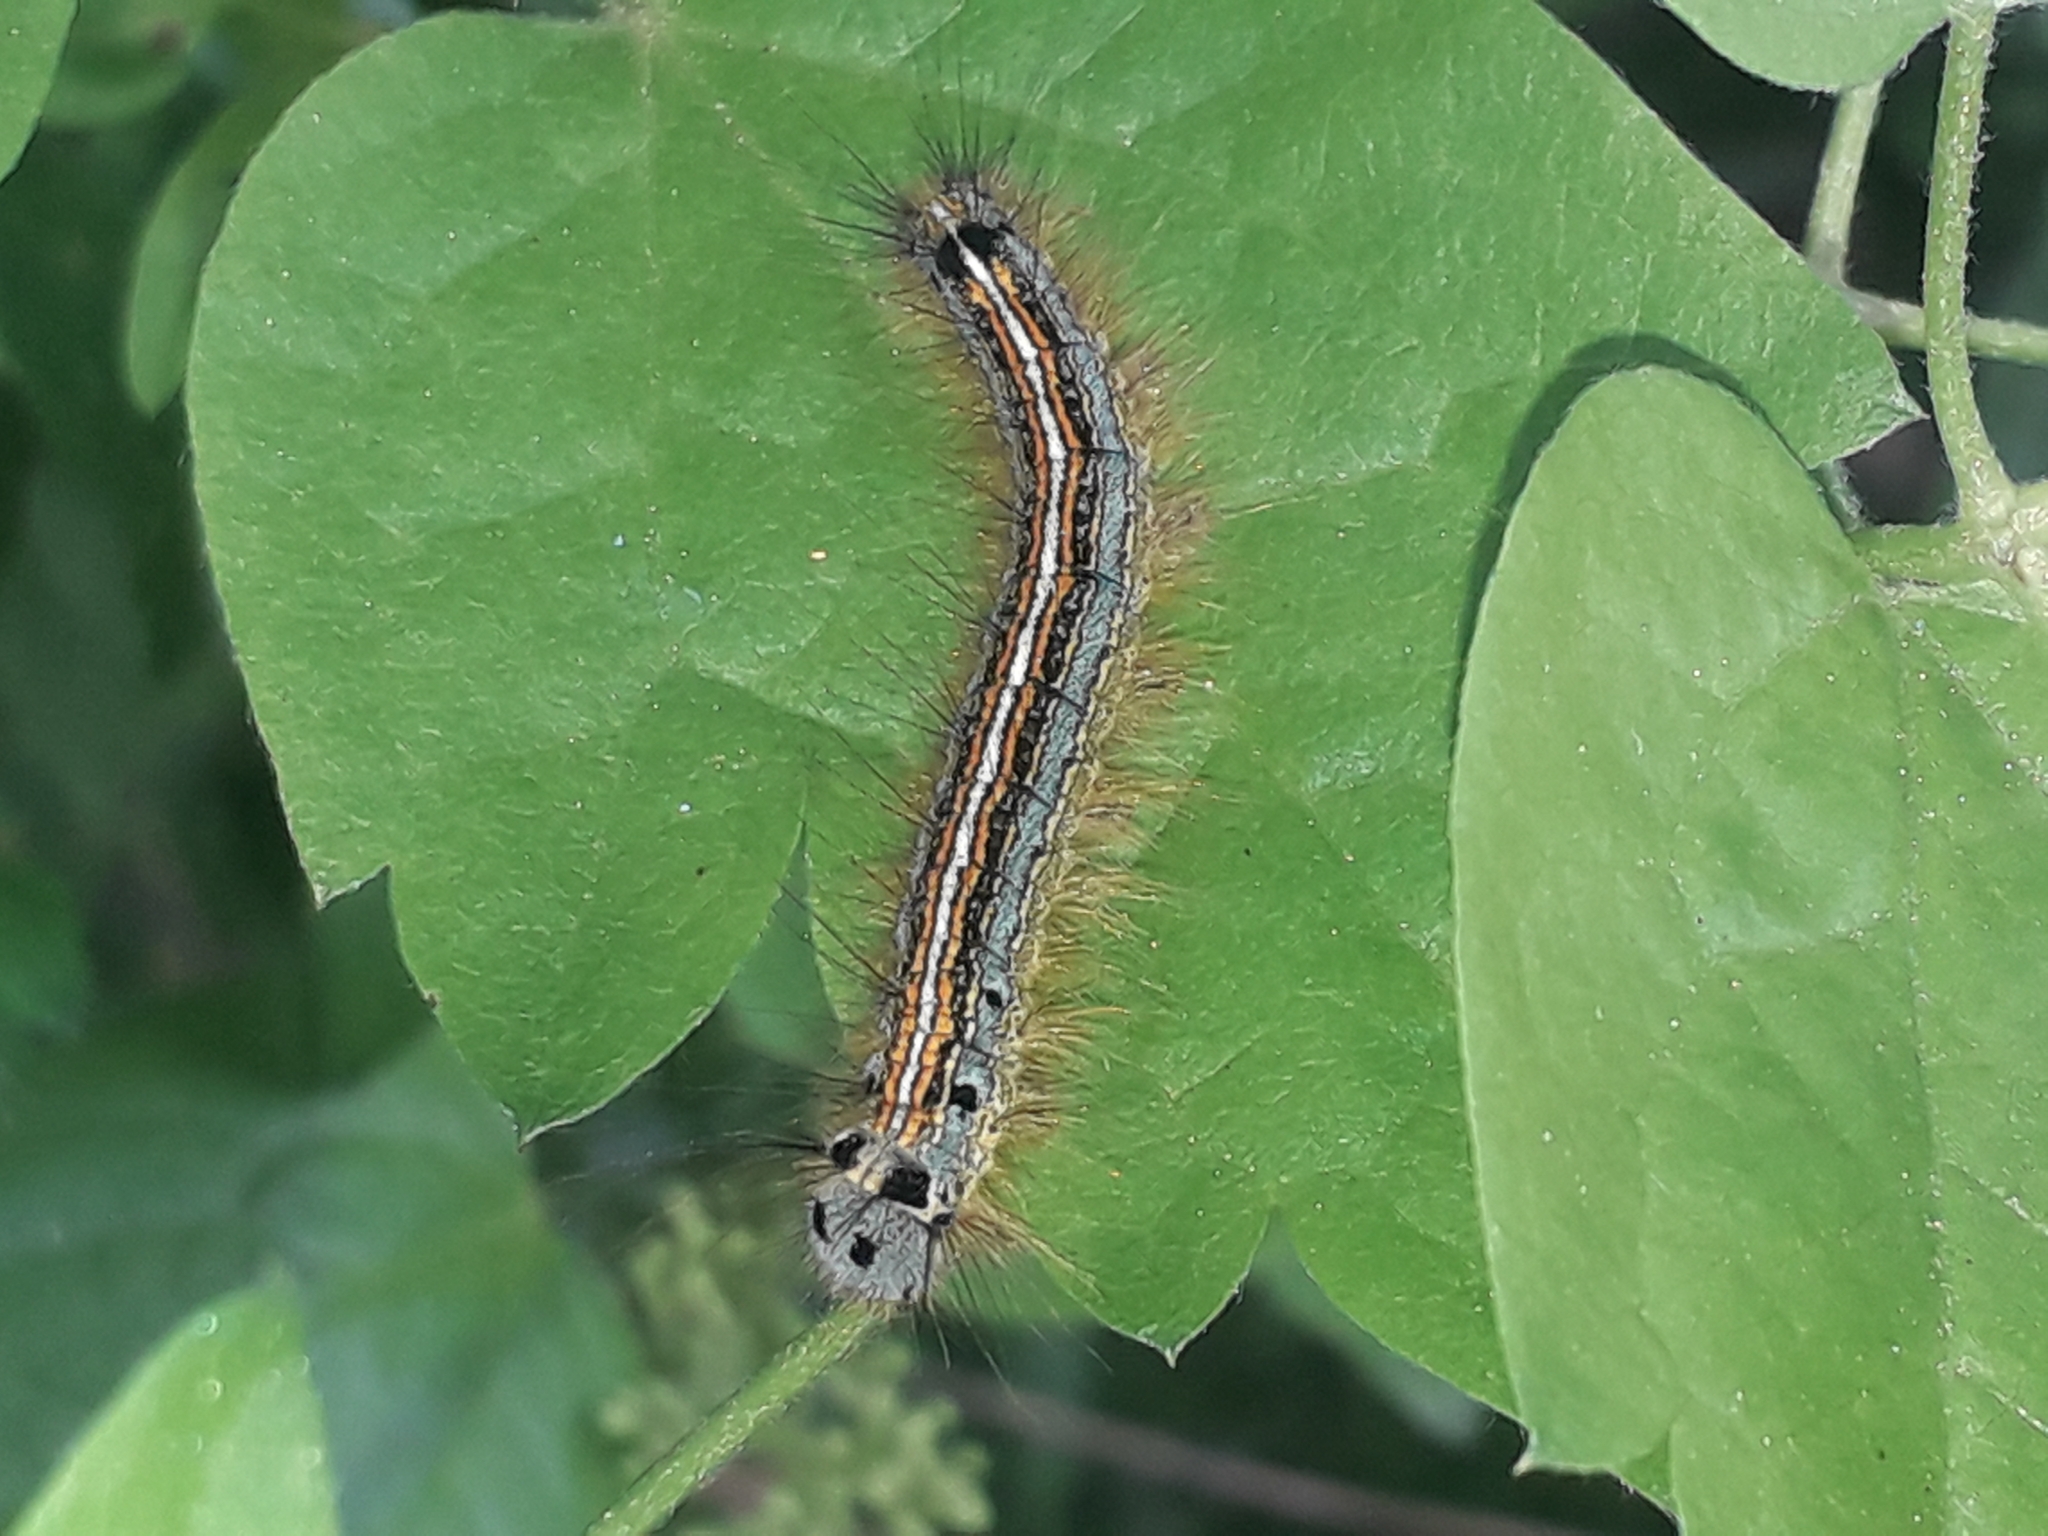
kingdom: Animalia
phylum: Arthropoda
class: Insecta
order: Lepidoptera
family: Lasiocampidae
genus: Malacosoma
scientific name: Malacosoma neustria
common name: The lackey
